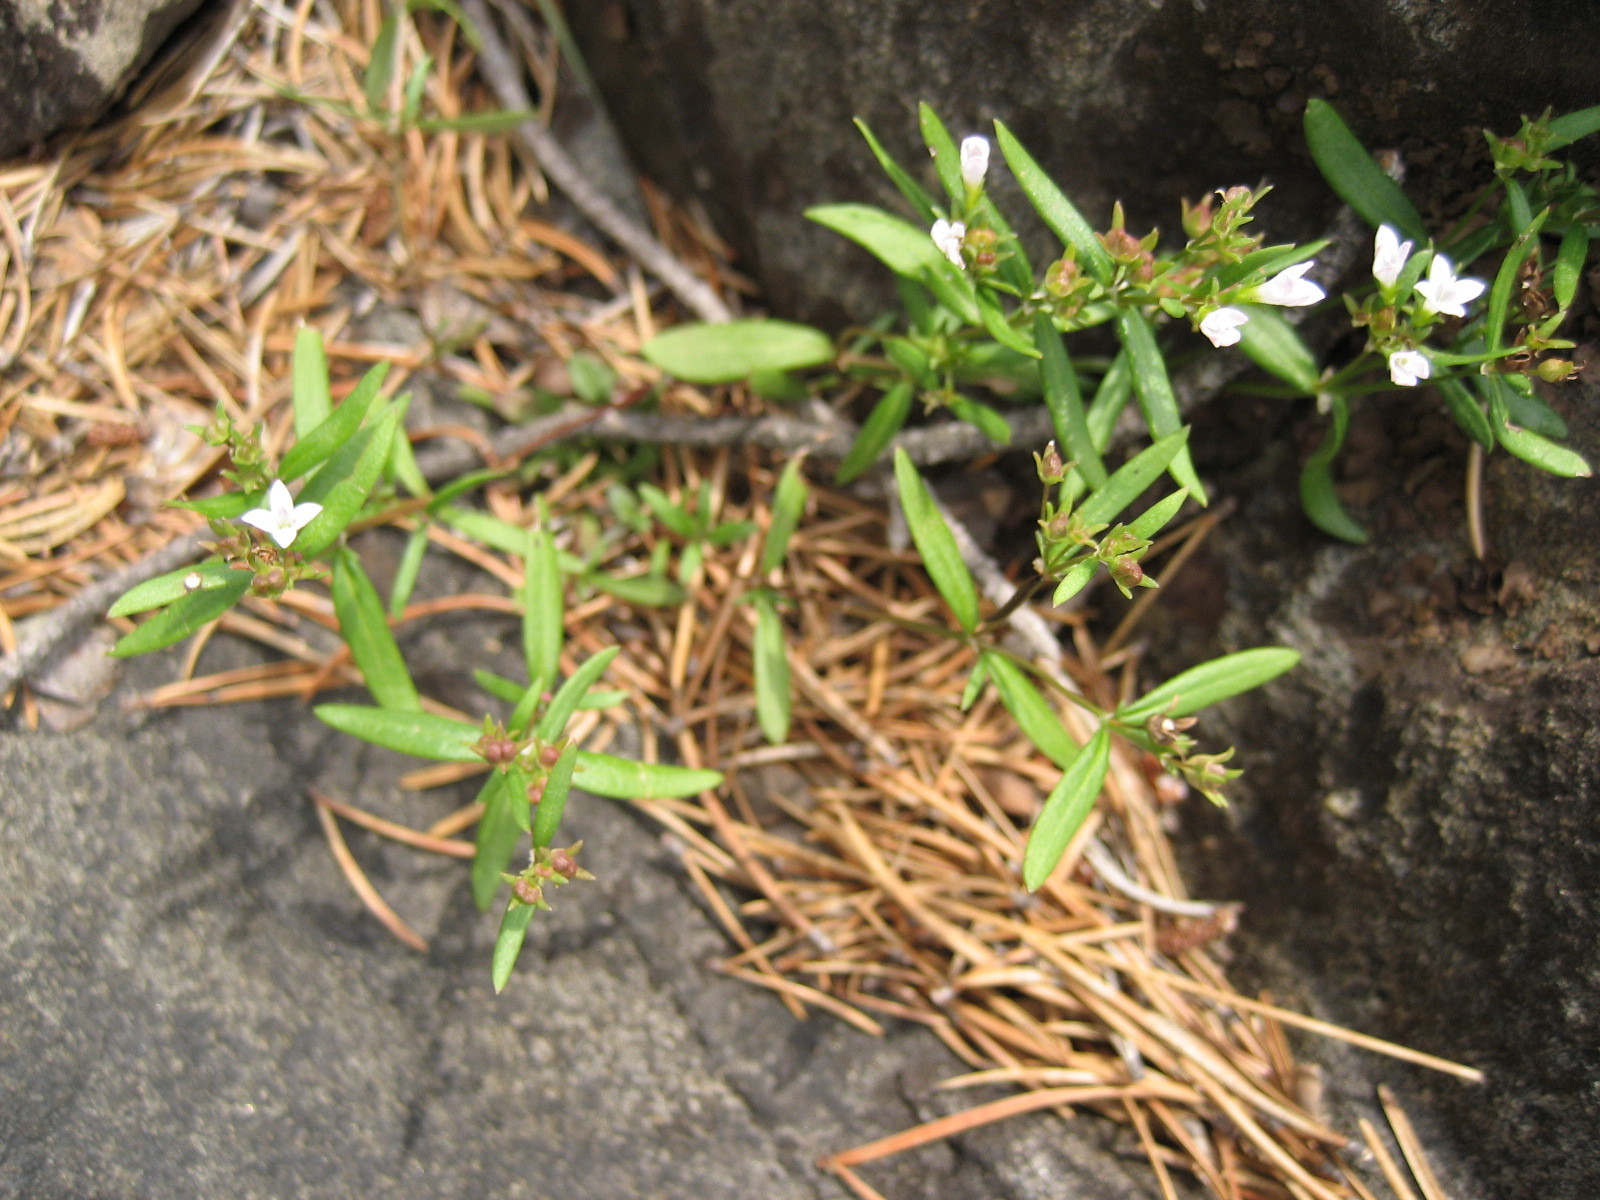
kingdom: Plantae
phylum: Tracheophyta
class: Magnoliopsida
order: Gentianales
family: Rubiaceae
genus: Houstonia
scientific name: Houstonia longifolia
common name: Long-leaved bluets
